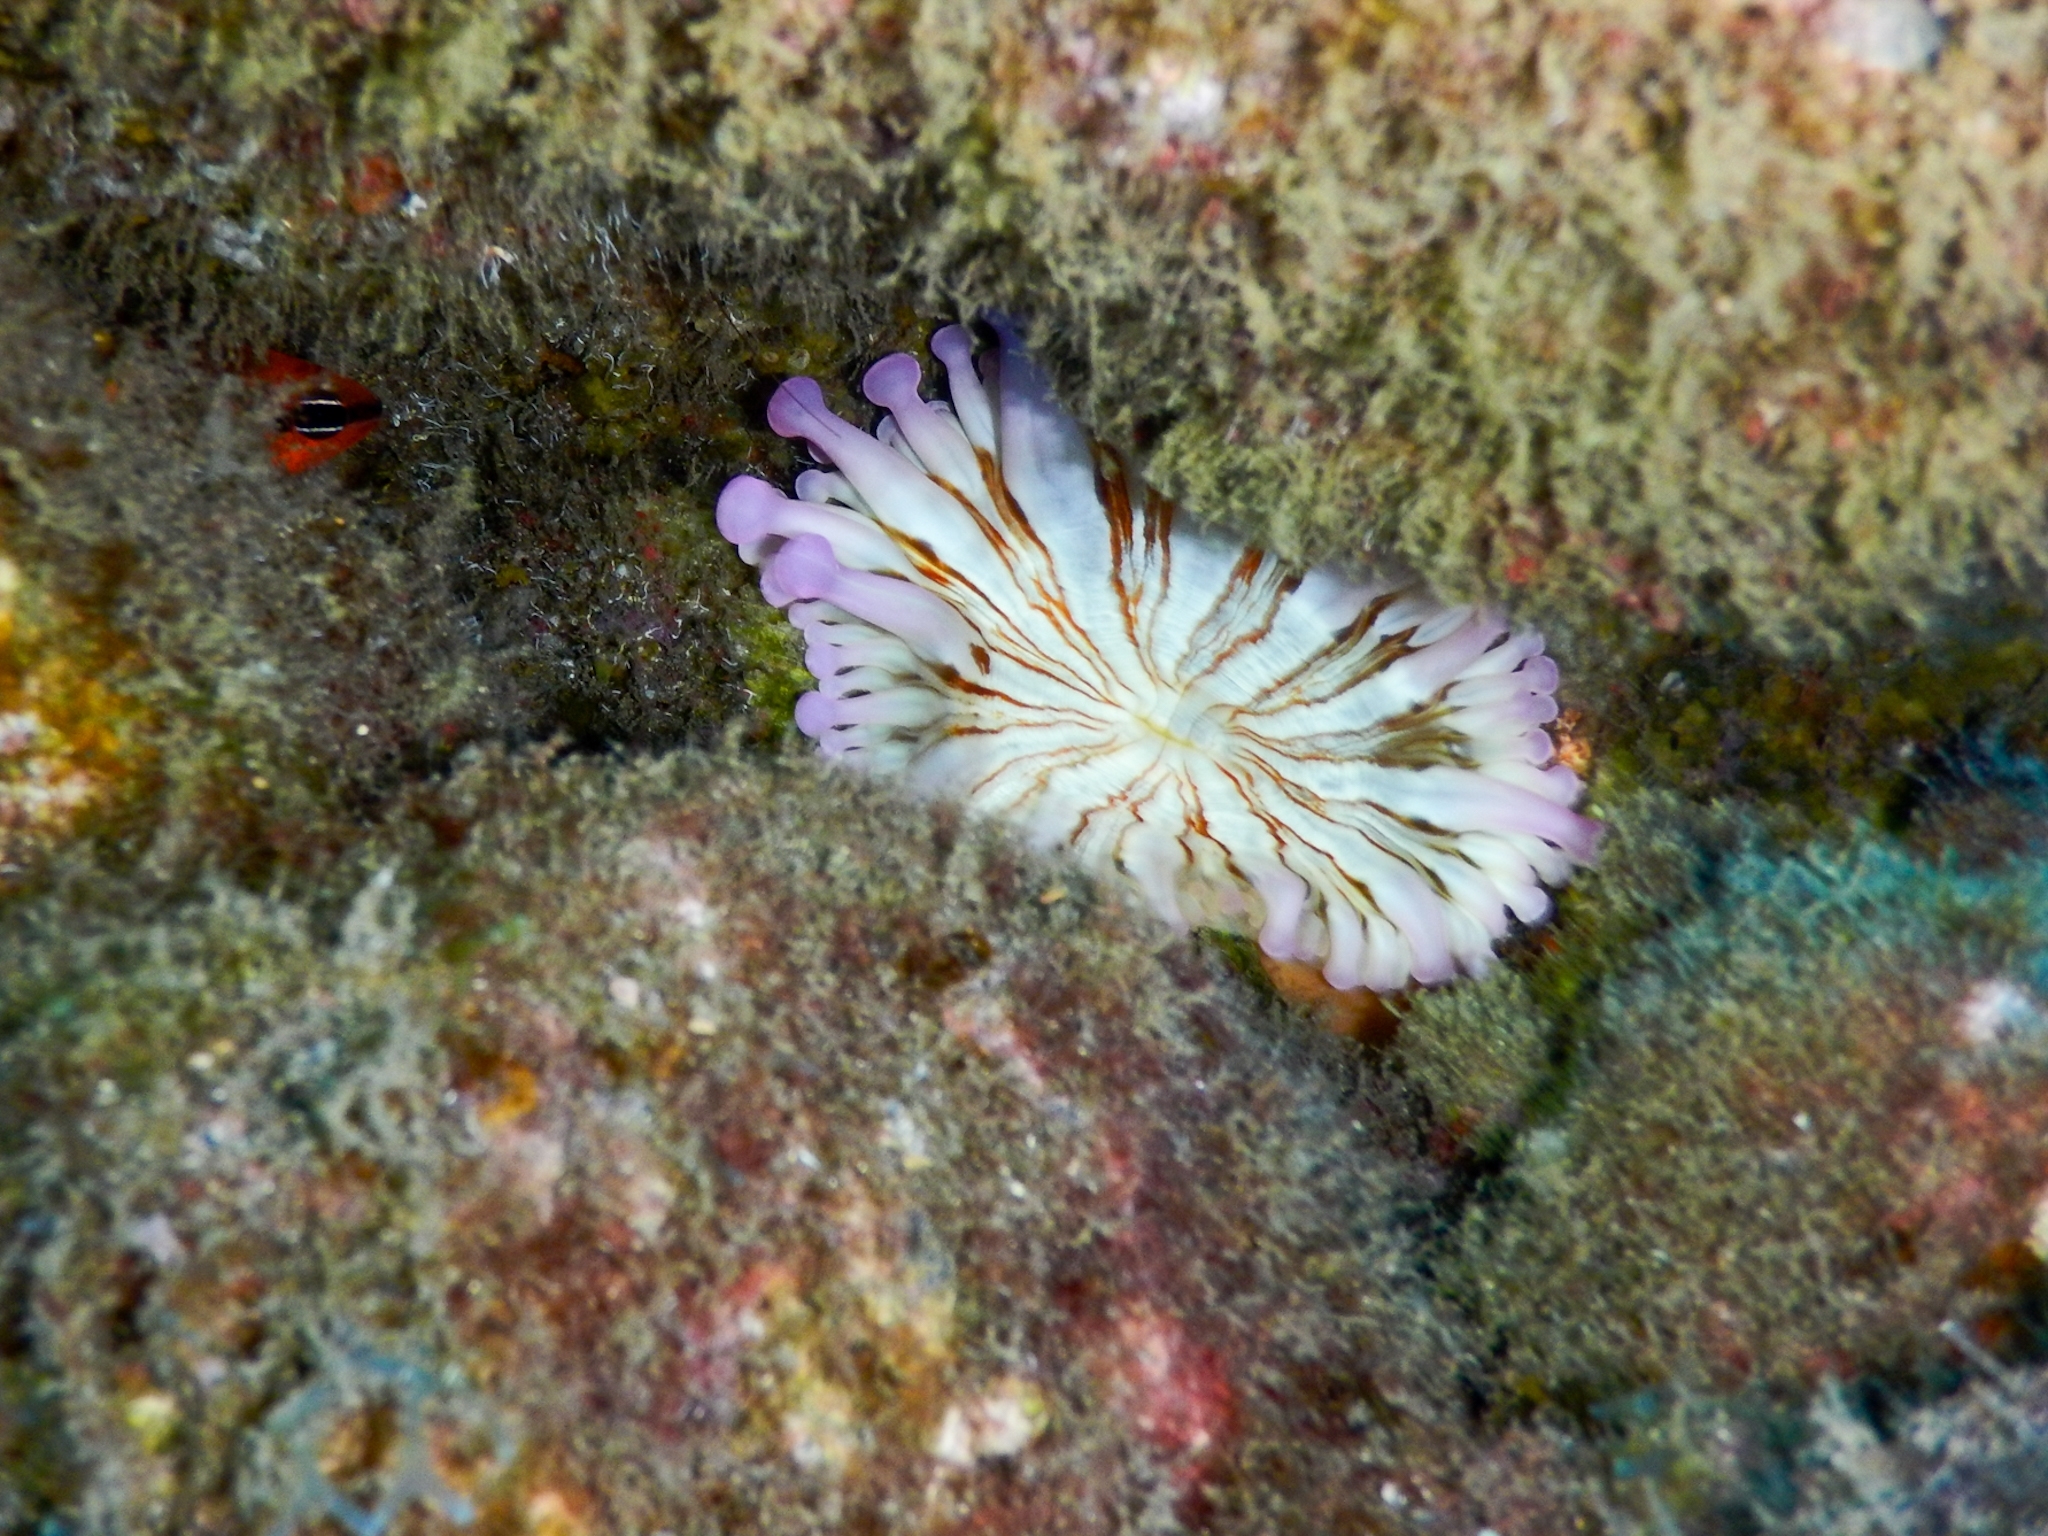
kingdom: Animalia
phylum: Cnidaria
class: Anthozoa
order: Actiniaria
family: Andvakiidae
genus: Telmatactis
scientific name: Telmatactis cricoides
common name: Blunt-tentacled anemone
